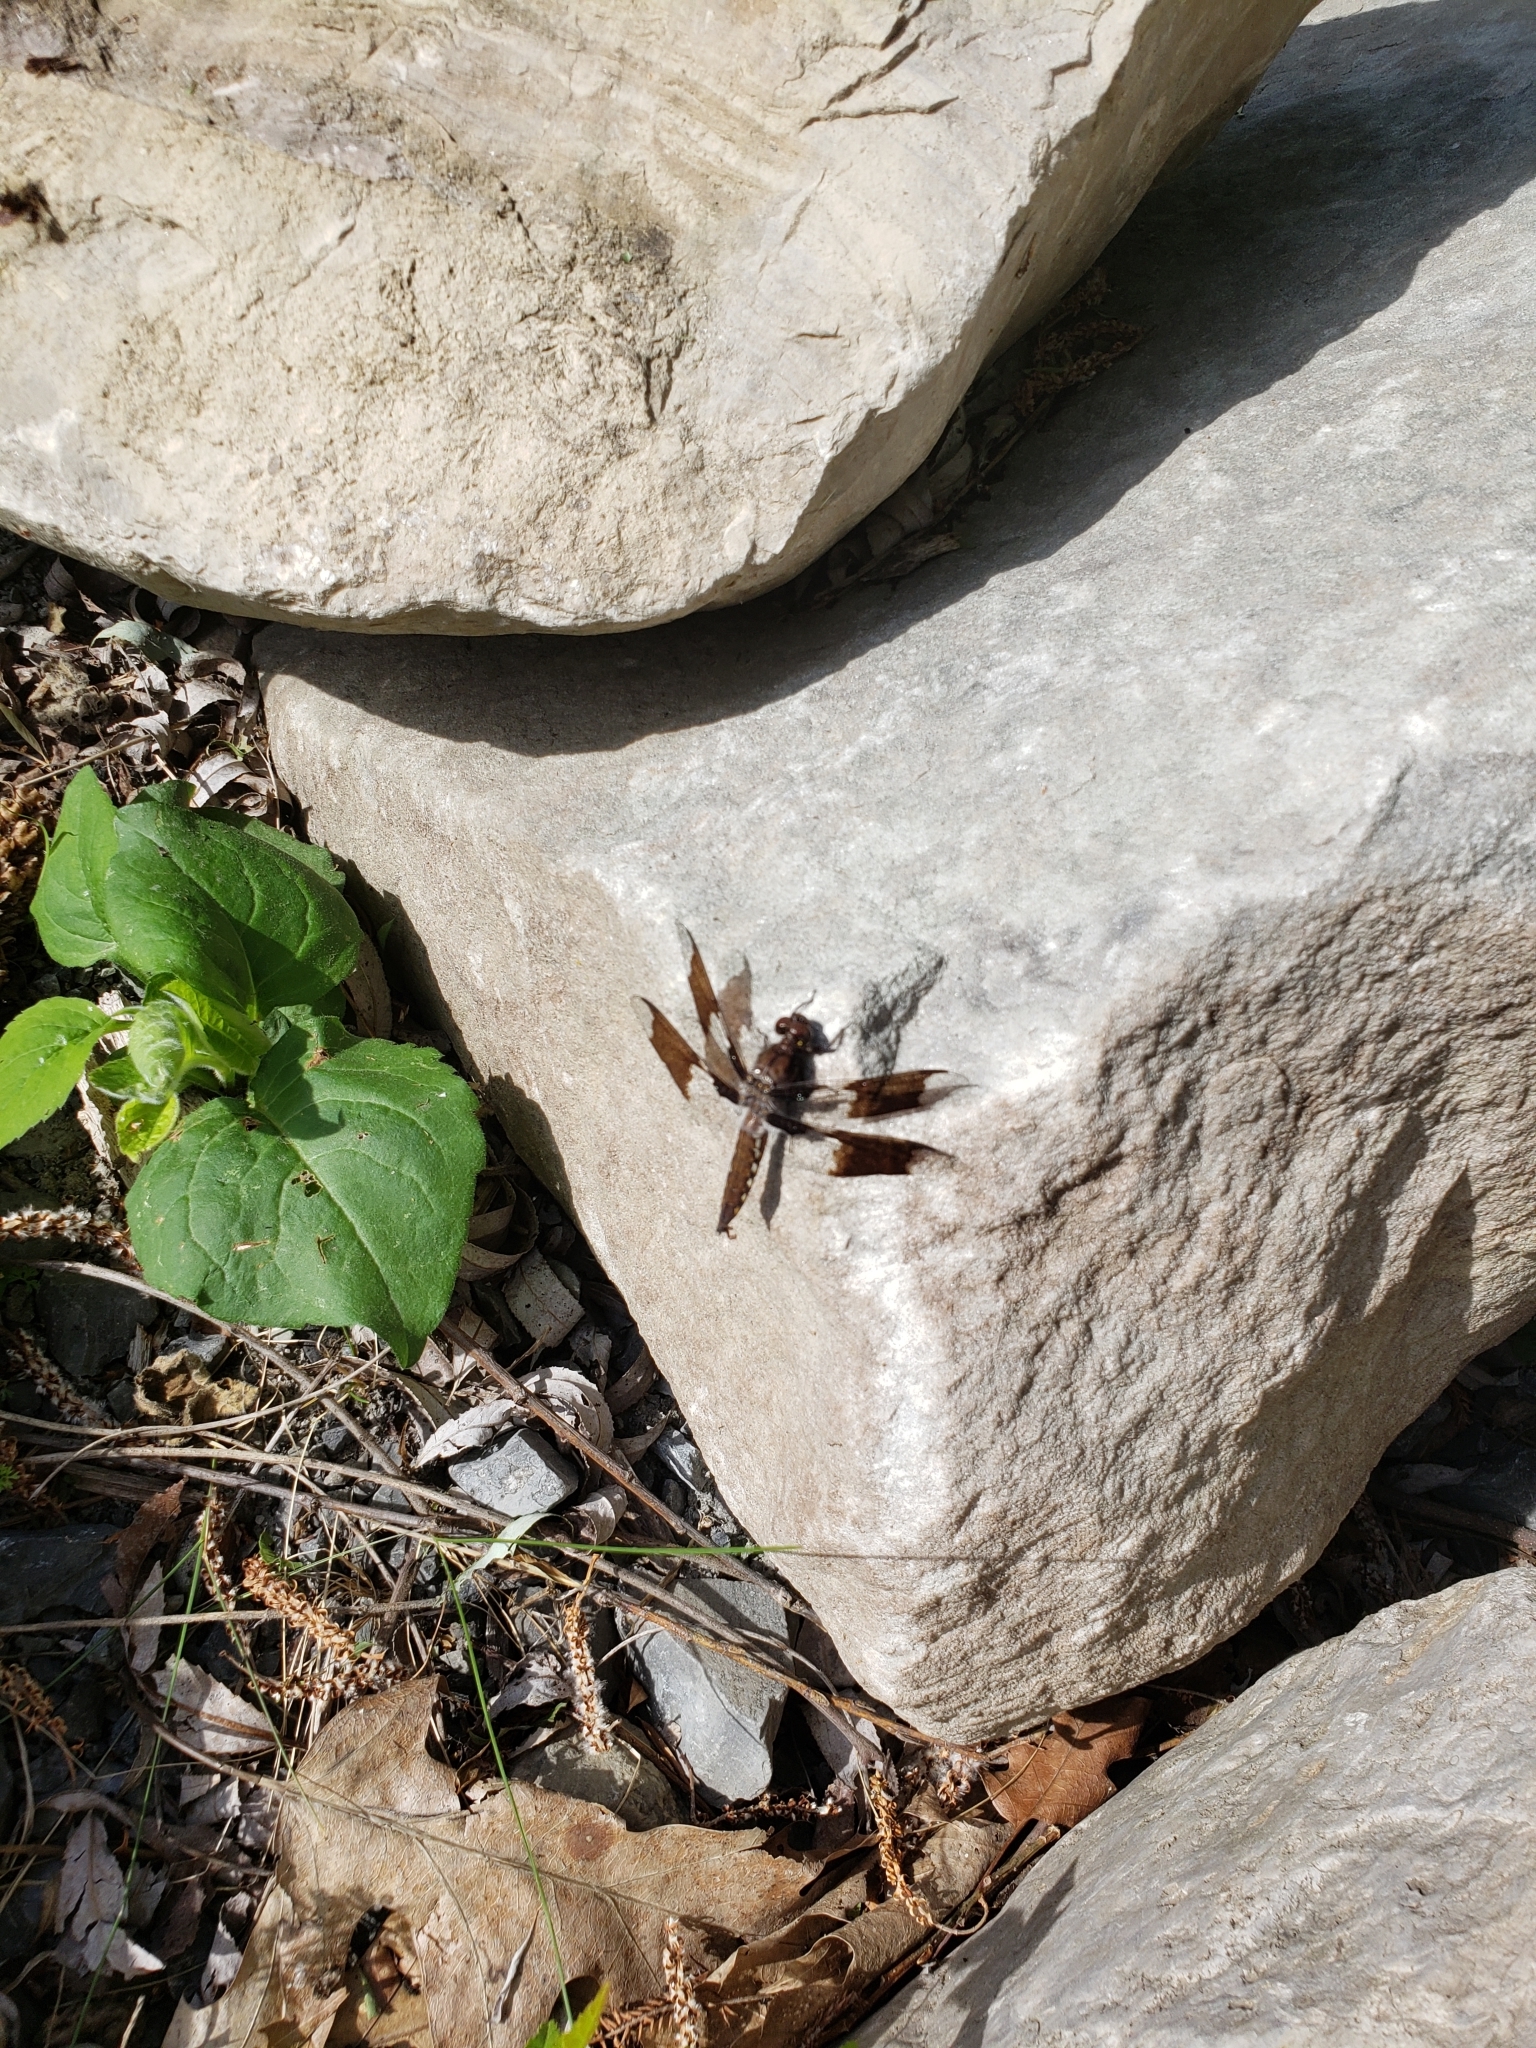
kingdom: Animalia
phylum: Arthropoda
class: Insecta
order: Odonata
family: Libellulidae
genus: Plathemis
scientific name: Plathemis lydia
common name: Common whitetail
